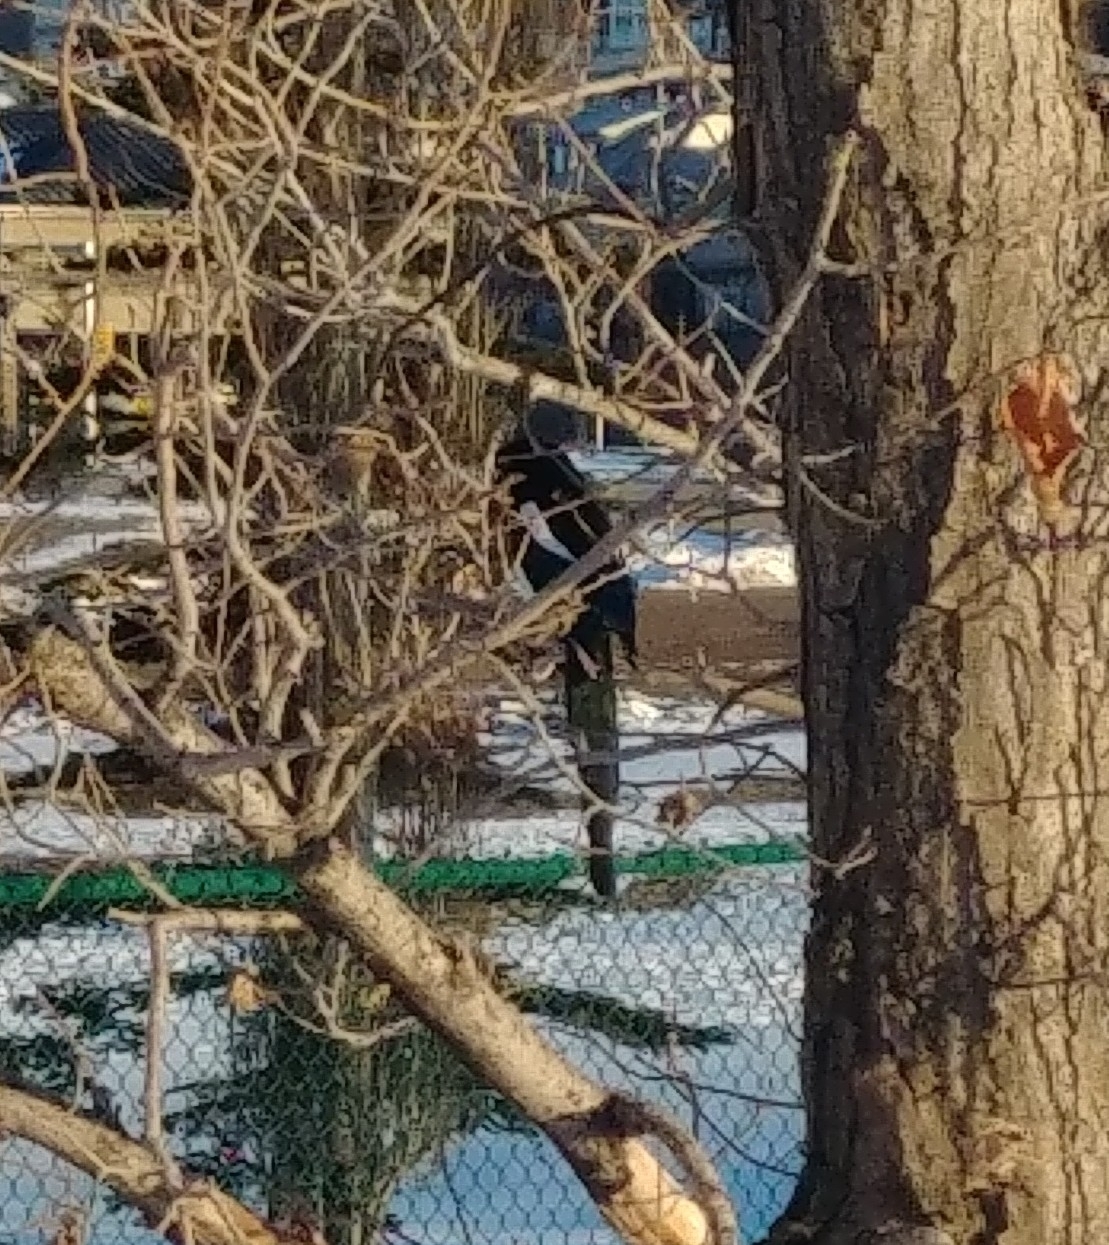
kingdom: Animalia
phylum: Chordata
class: Aves
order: Passeriformes
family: Corvidae
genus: Pica
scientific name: Pica hudsonia
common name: Black-billed magpie
